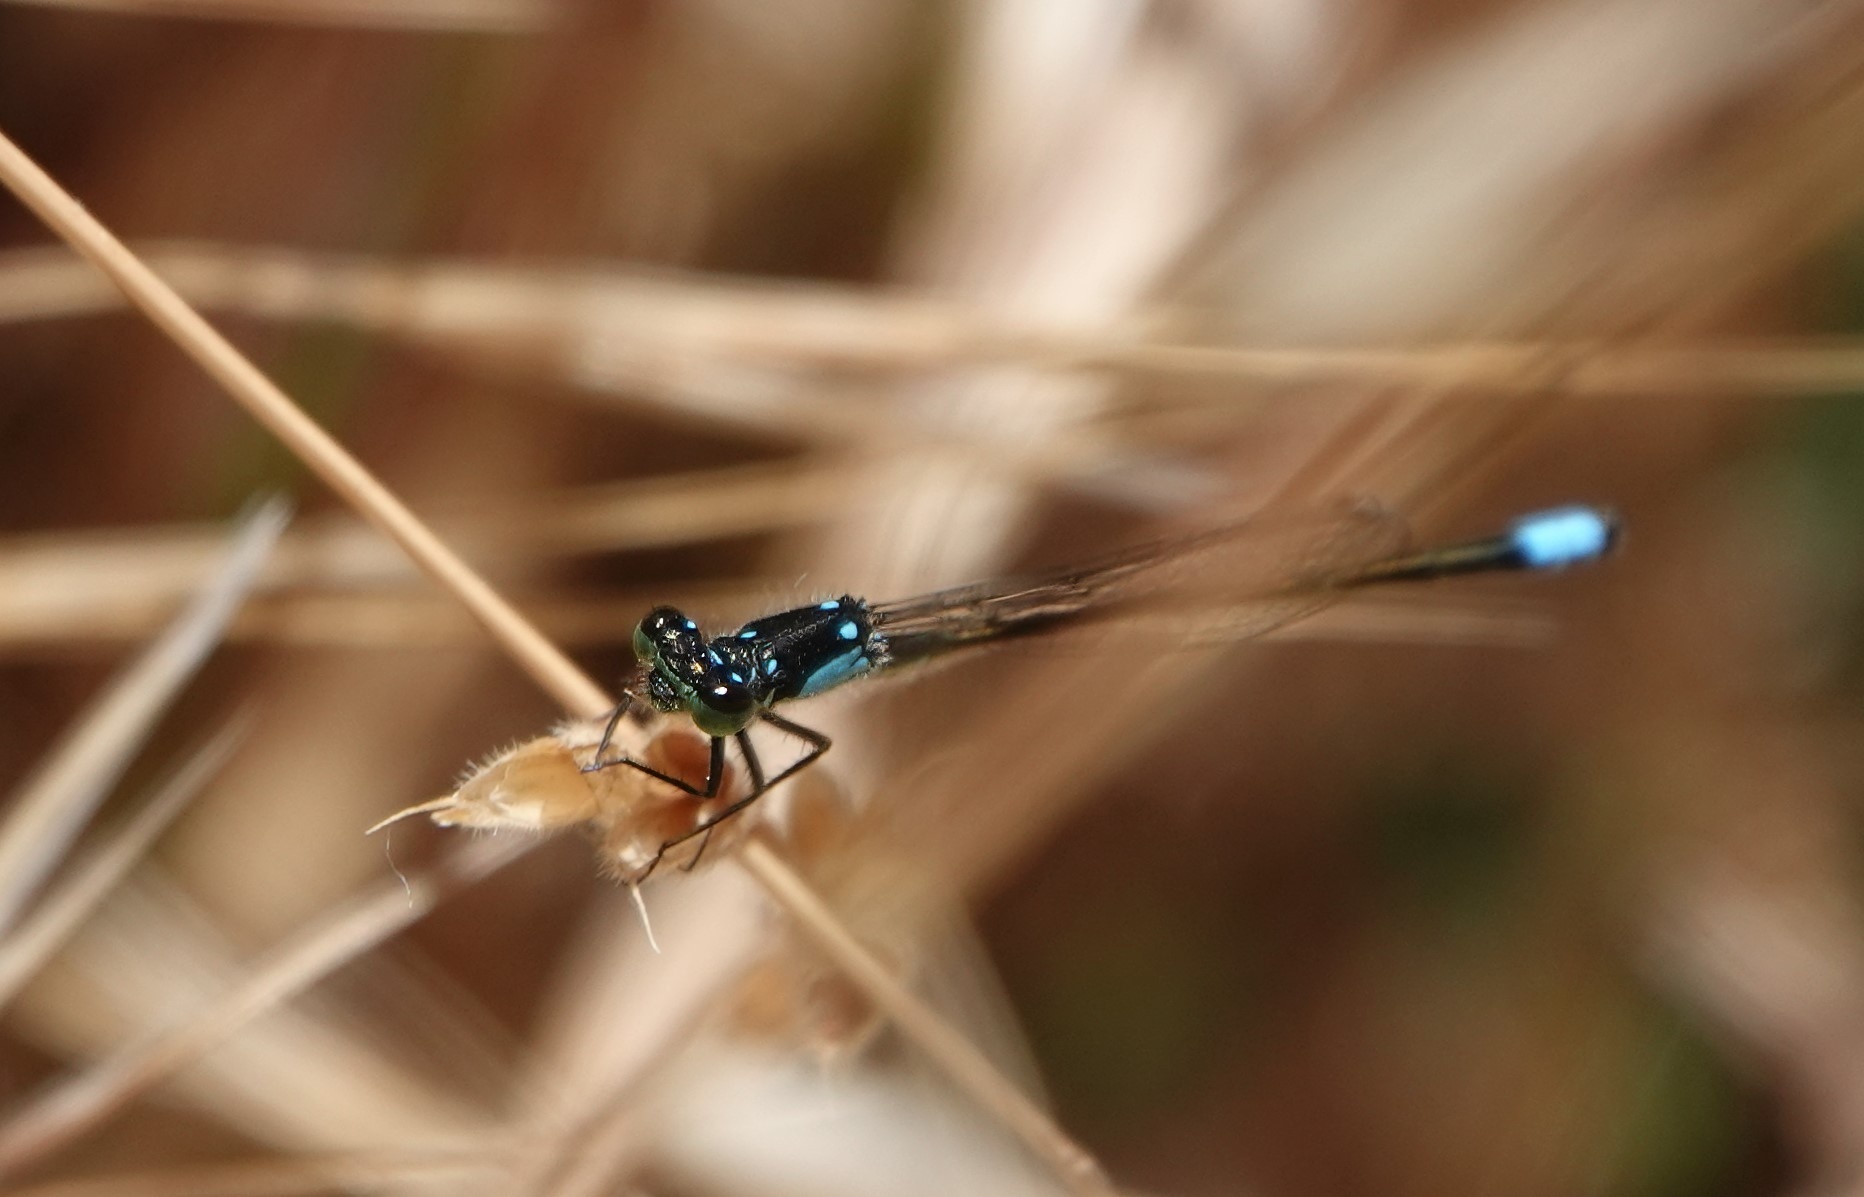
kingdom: Animalia
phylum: Arthropoda
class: Insecta
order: Odonata
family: Coenagrionidae
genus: Ischnura
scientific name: Ischnura cervula
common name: Pacific forktail
